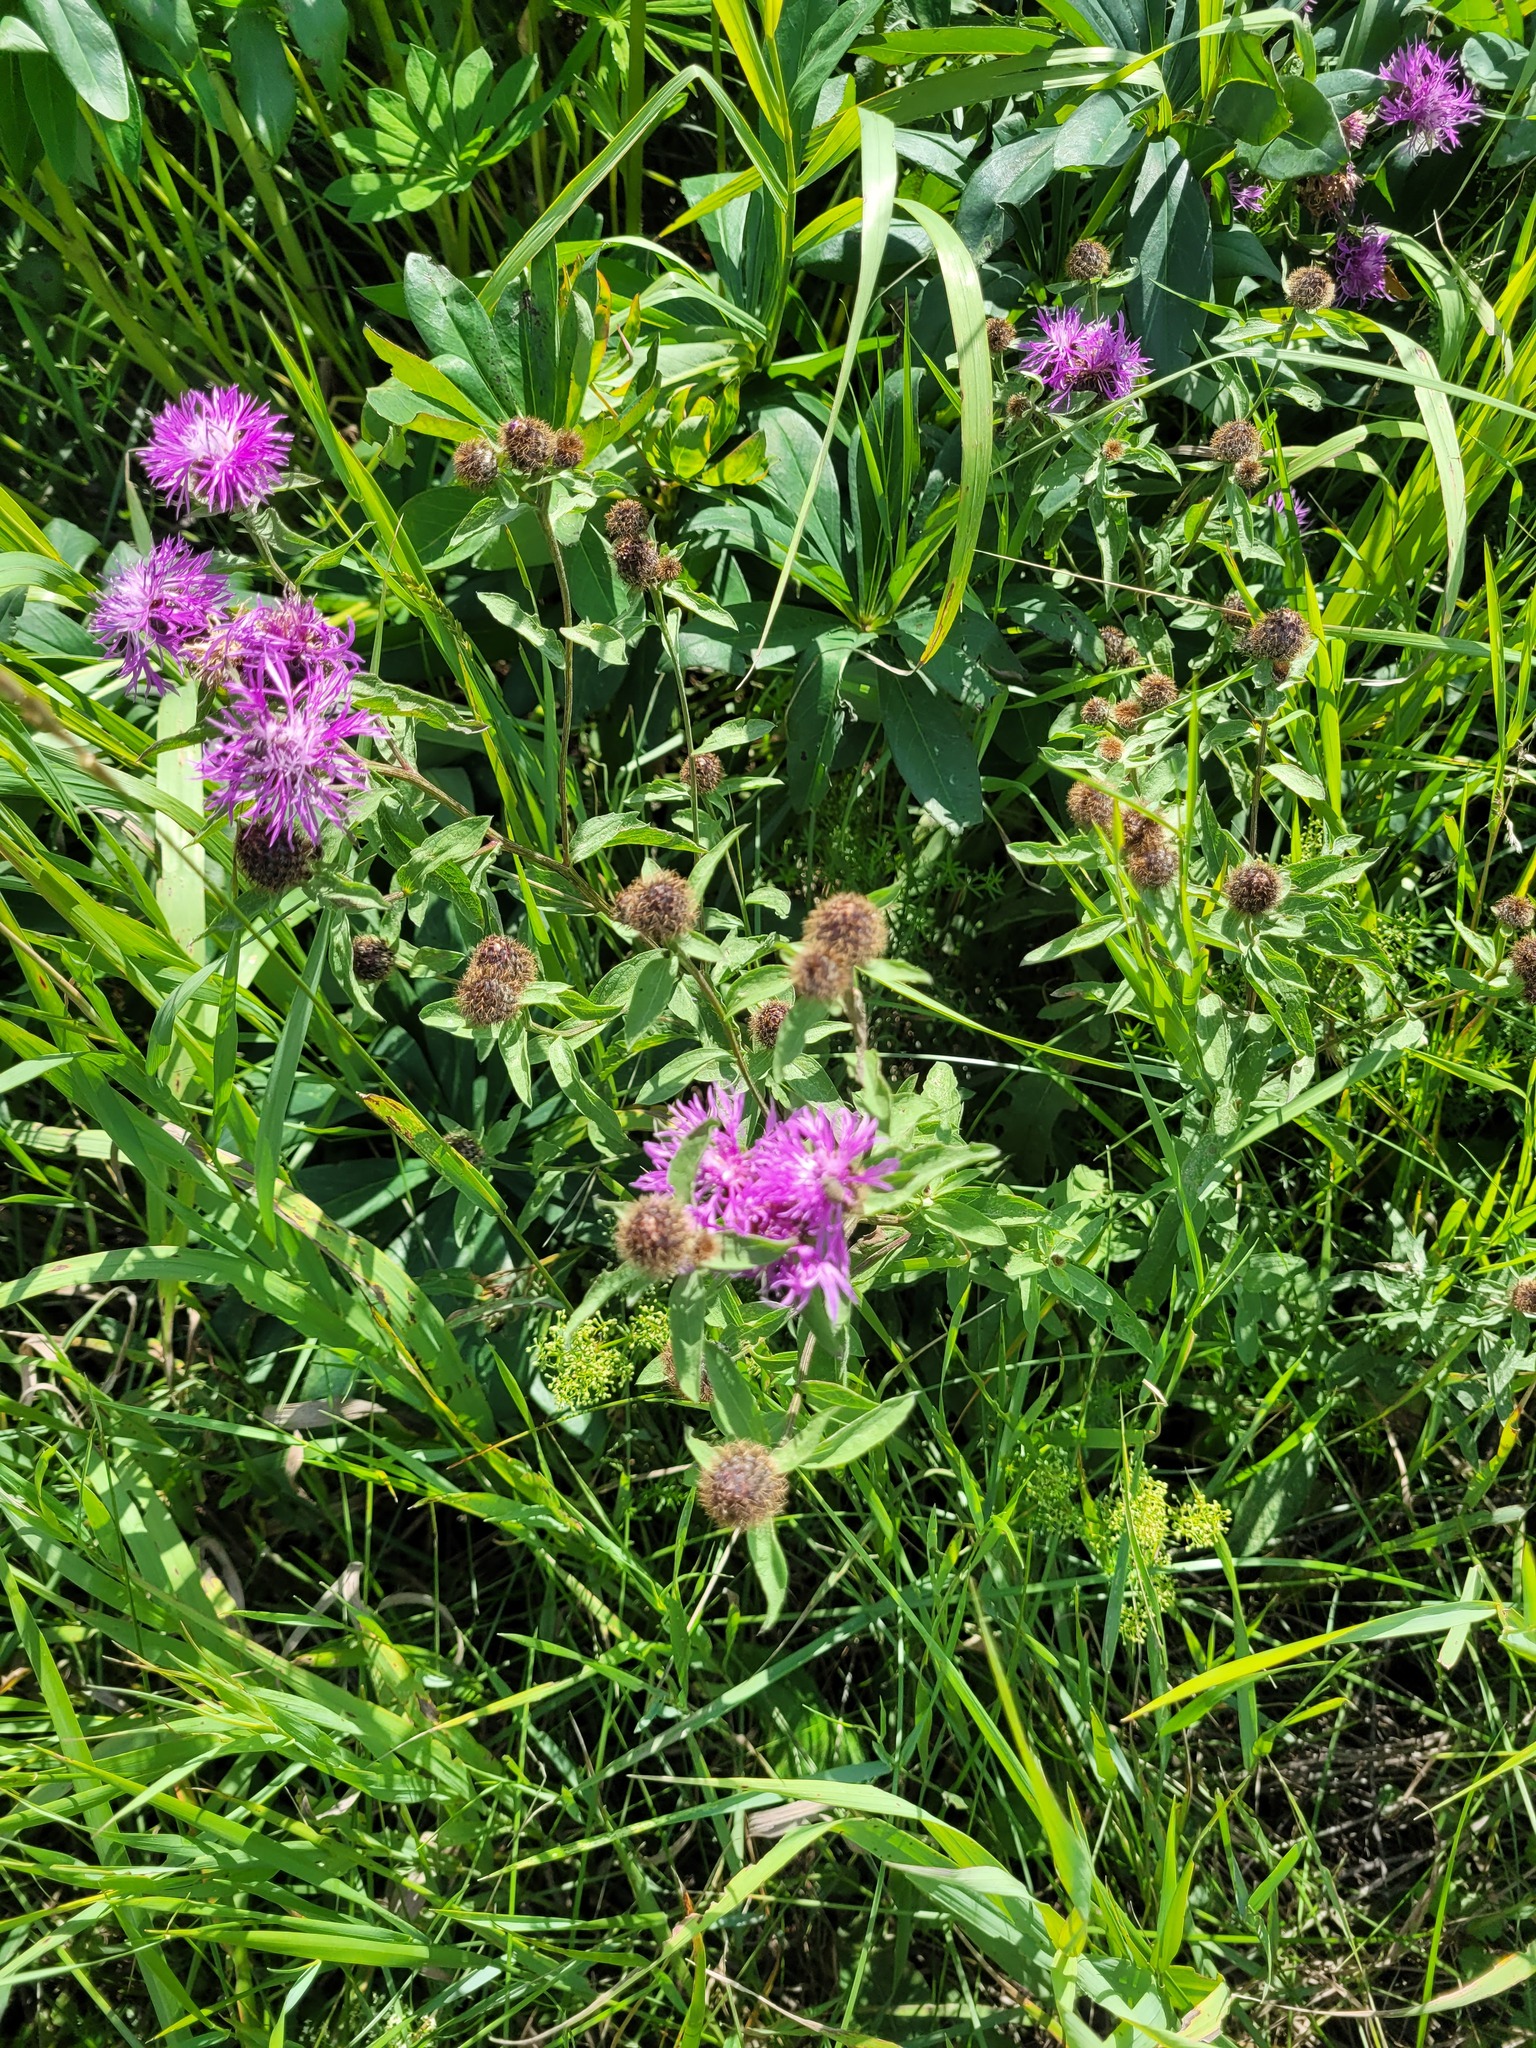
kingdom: Plantae
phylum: Tracheophyta
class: Magnoliopsida
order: Asterales
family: Asteraceae
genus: Centaurea
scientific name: Centaurea pseudophrygia
